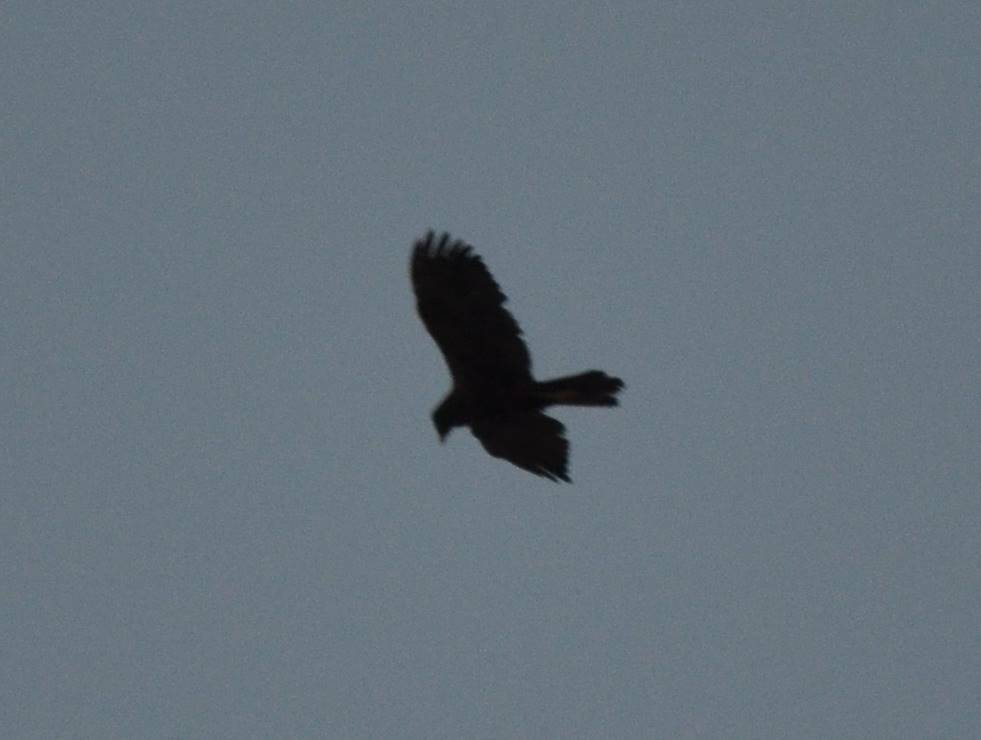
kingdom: Animalia
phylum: Chordata
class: Aves
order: Accipitriformes
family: Accipitridae
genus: Circus
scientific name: Circus aeruginosus
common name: Western marsh harrier
